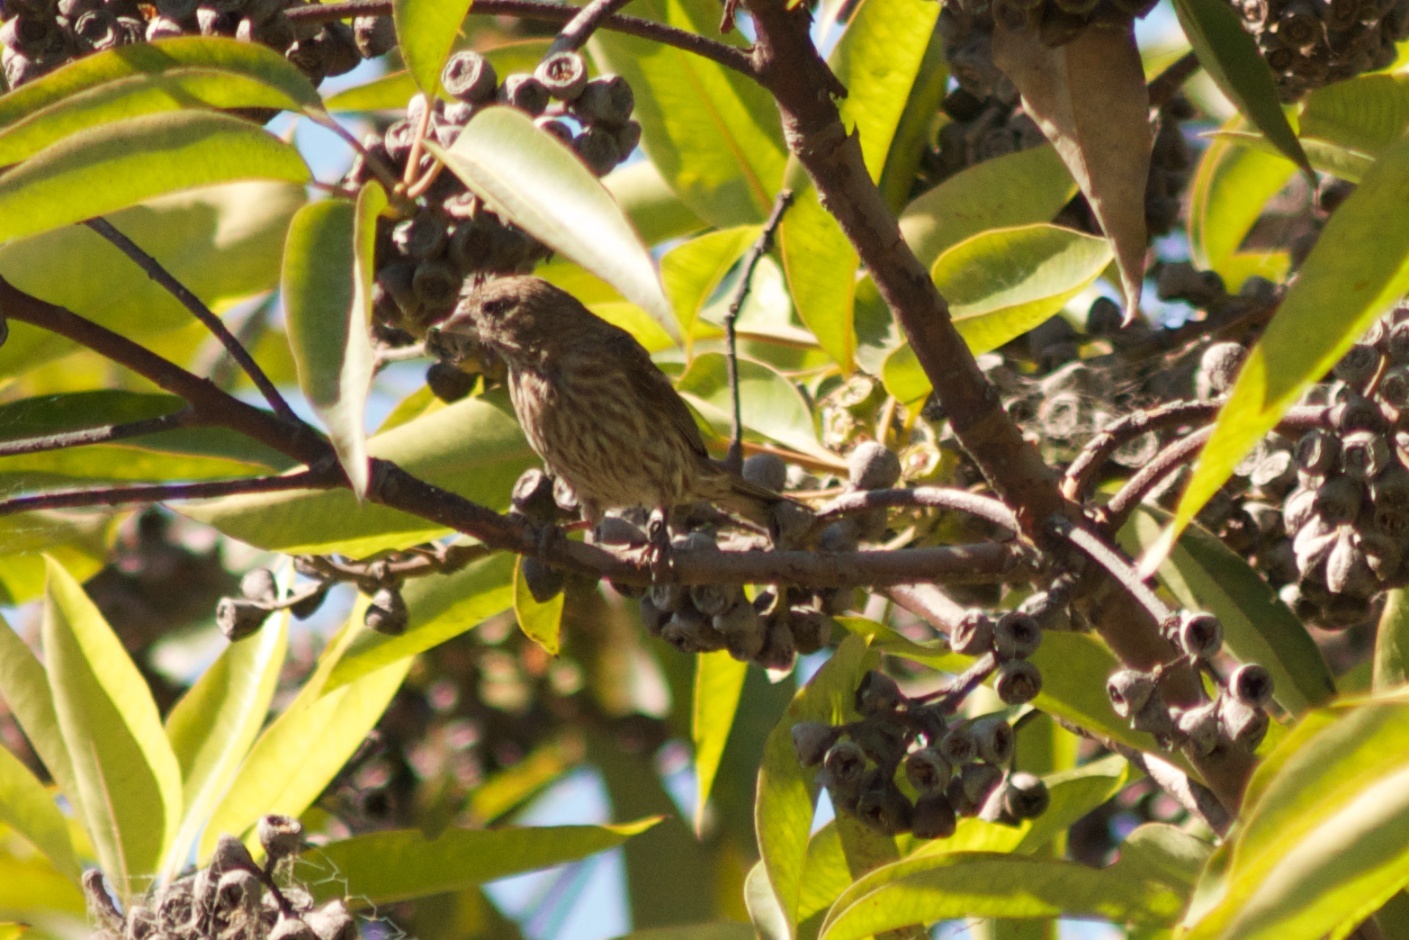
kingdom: Animalia
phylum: Chordata
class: Aves
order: Passeriformes
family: Fringillidae
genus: Haemorhous
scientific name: Haemorhous mexicanus
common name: House finch
